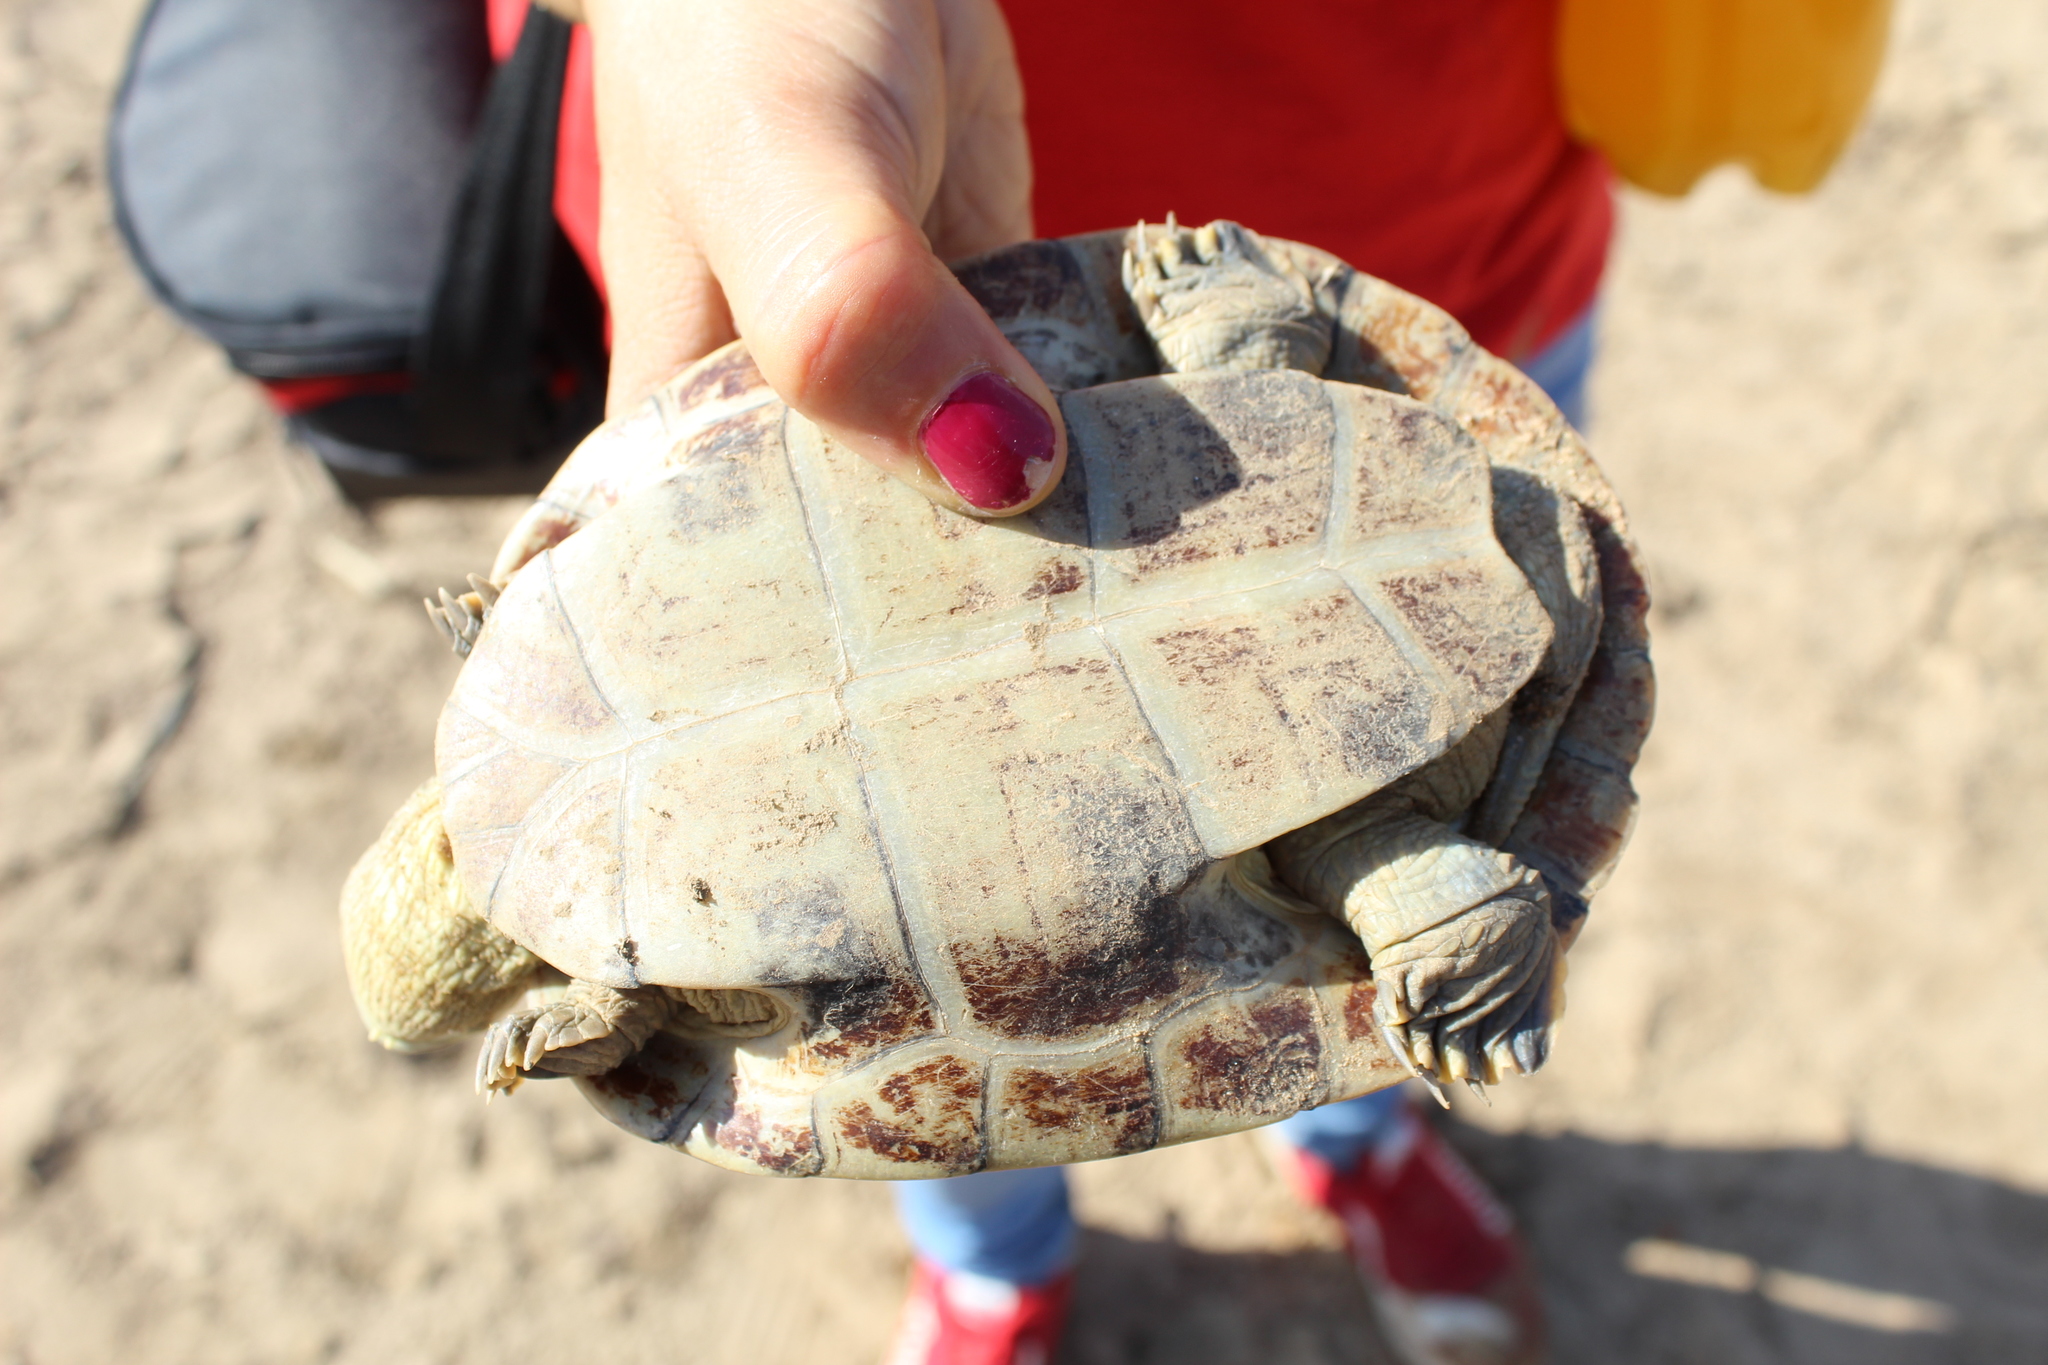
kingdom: Animalia
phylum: Chordata
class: Testudines
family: Podocnemididae
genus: Podocnemis
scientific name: Podocnemis vogli
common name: Savanna side-necked turtle
